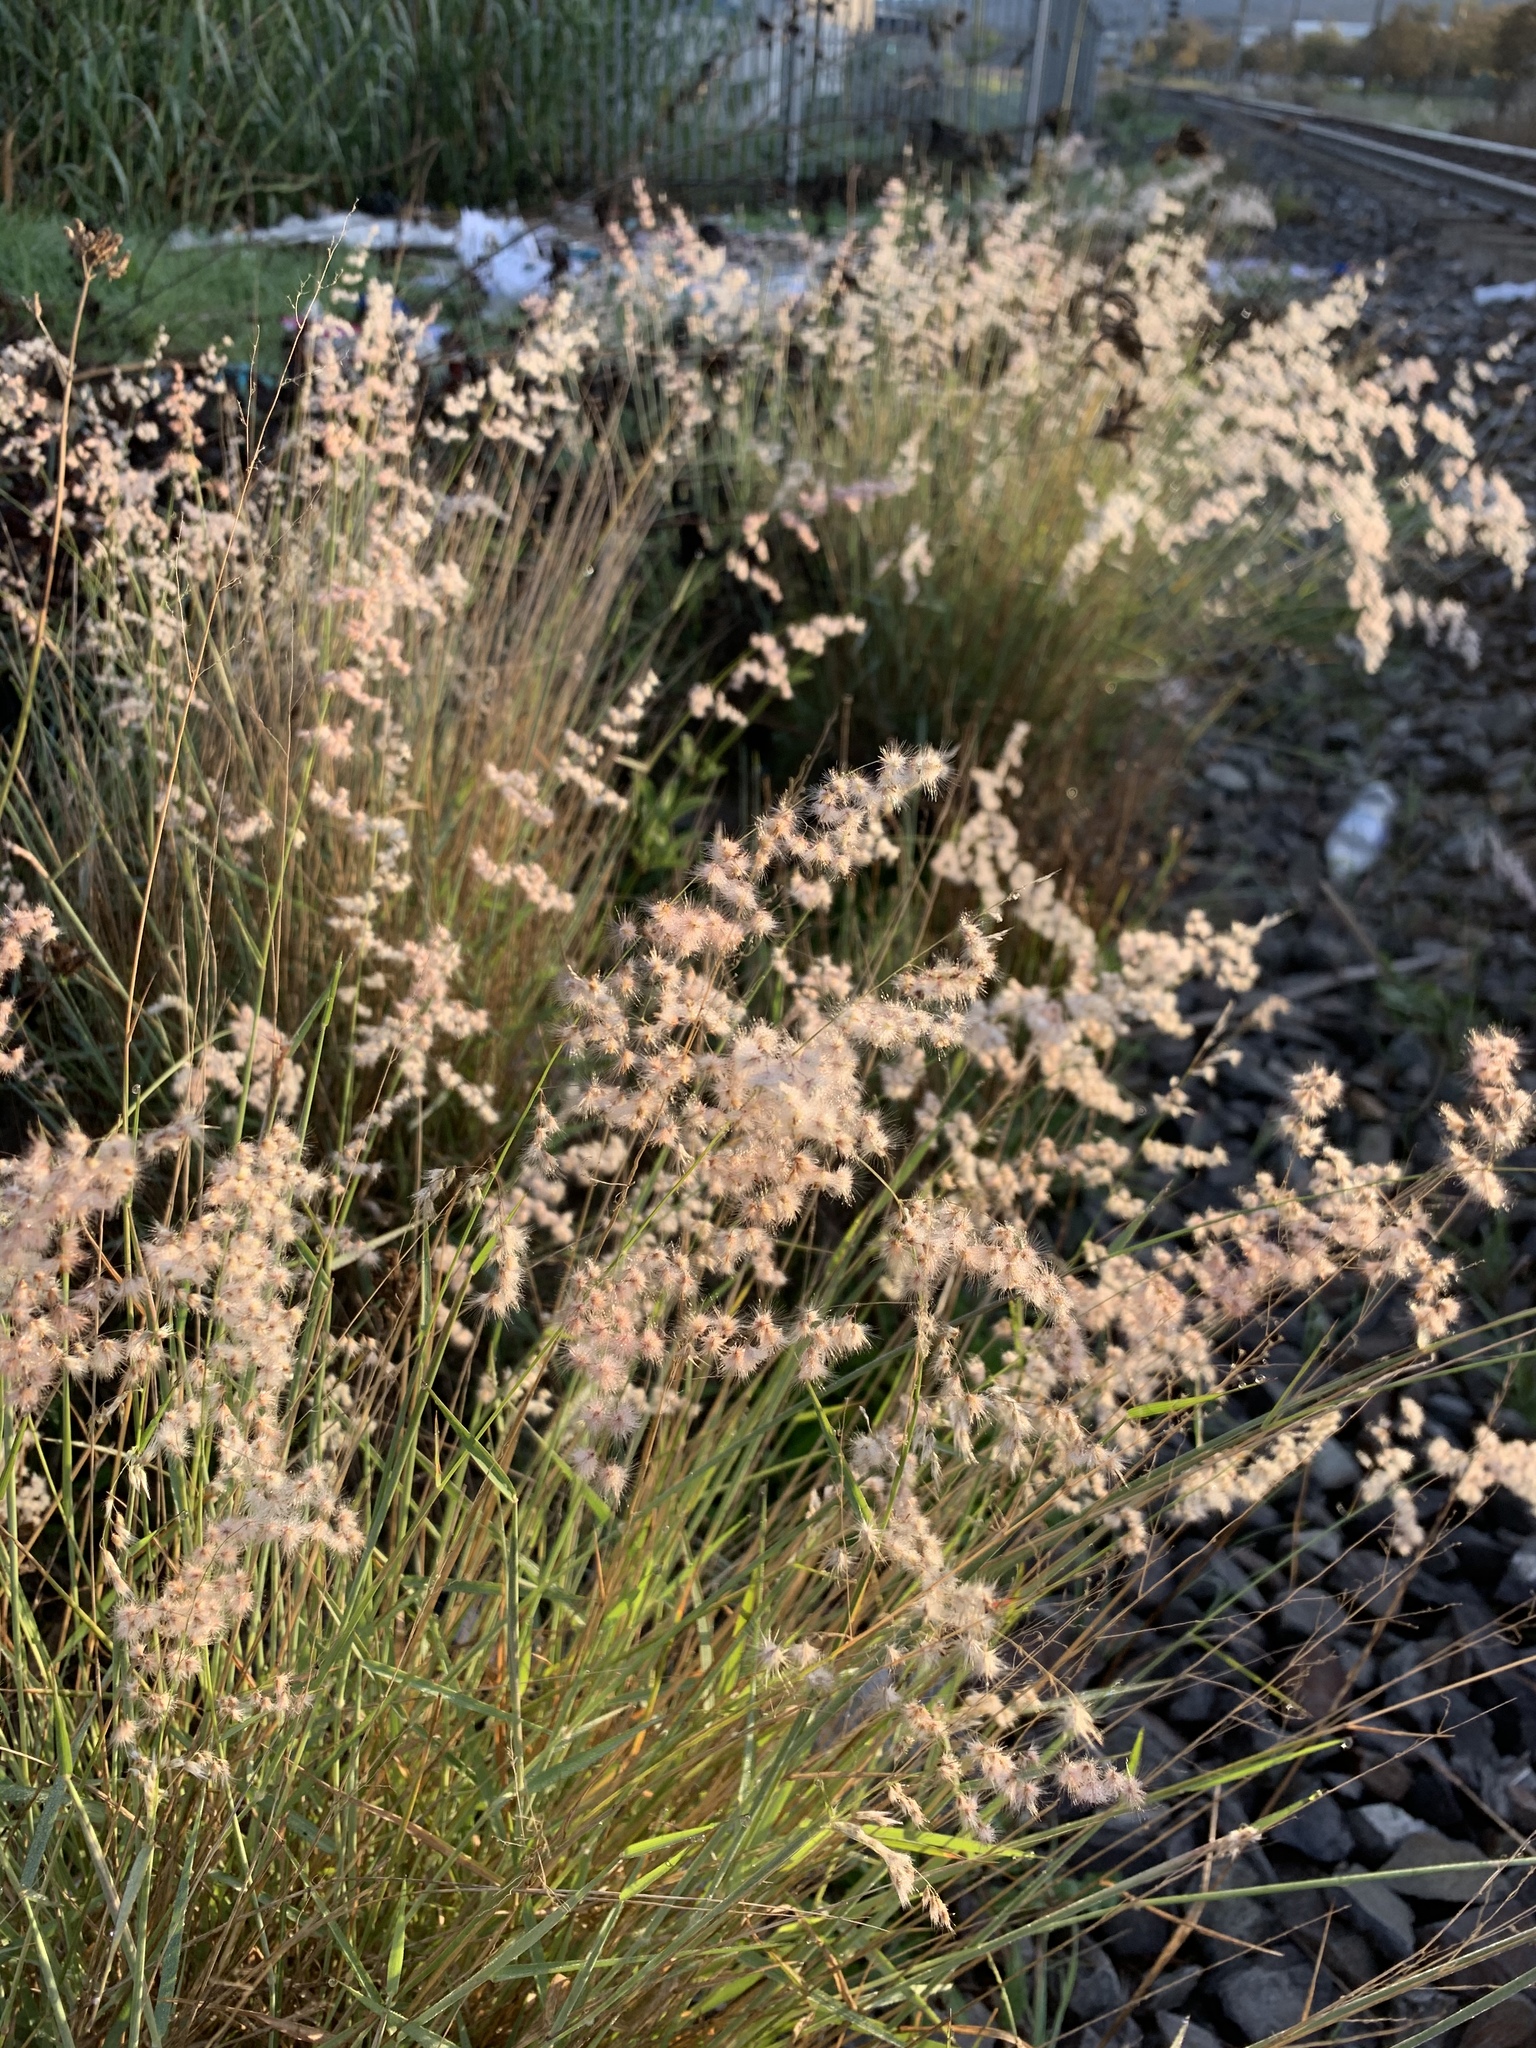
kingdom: Plantae
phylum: Tracheophyta
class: Liliopsida
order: Poales
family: Poaceae
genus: Melinis
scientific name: Melinis repens
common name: Rose natal grass
